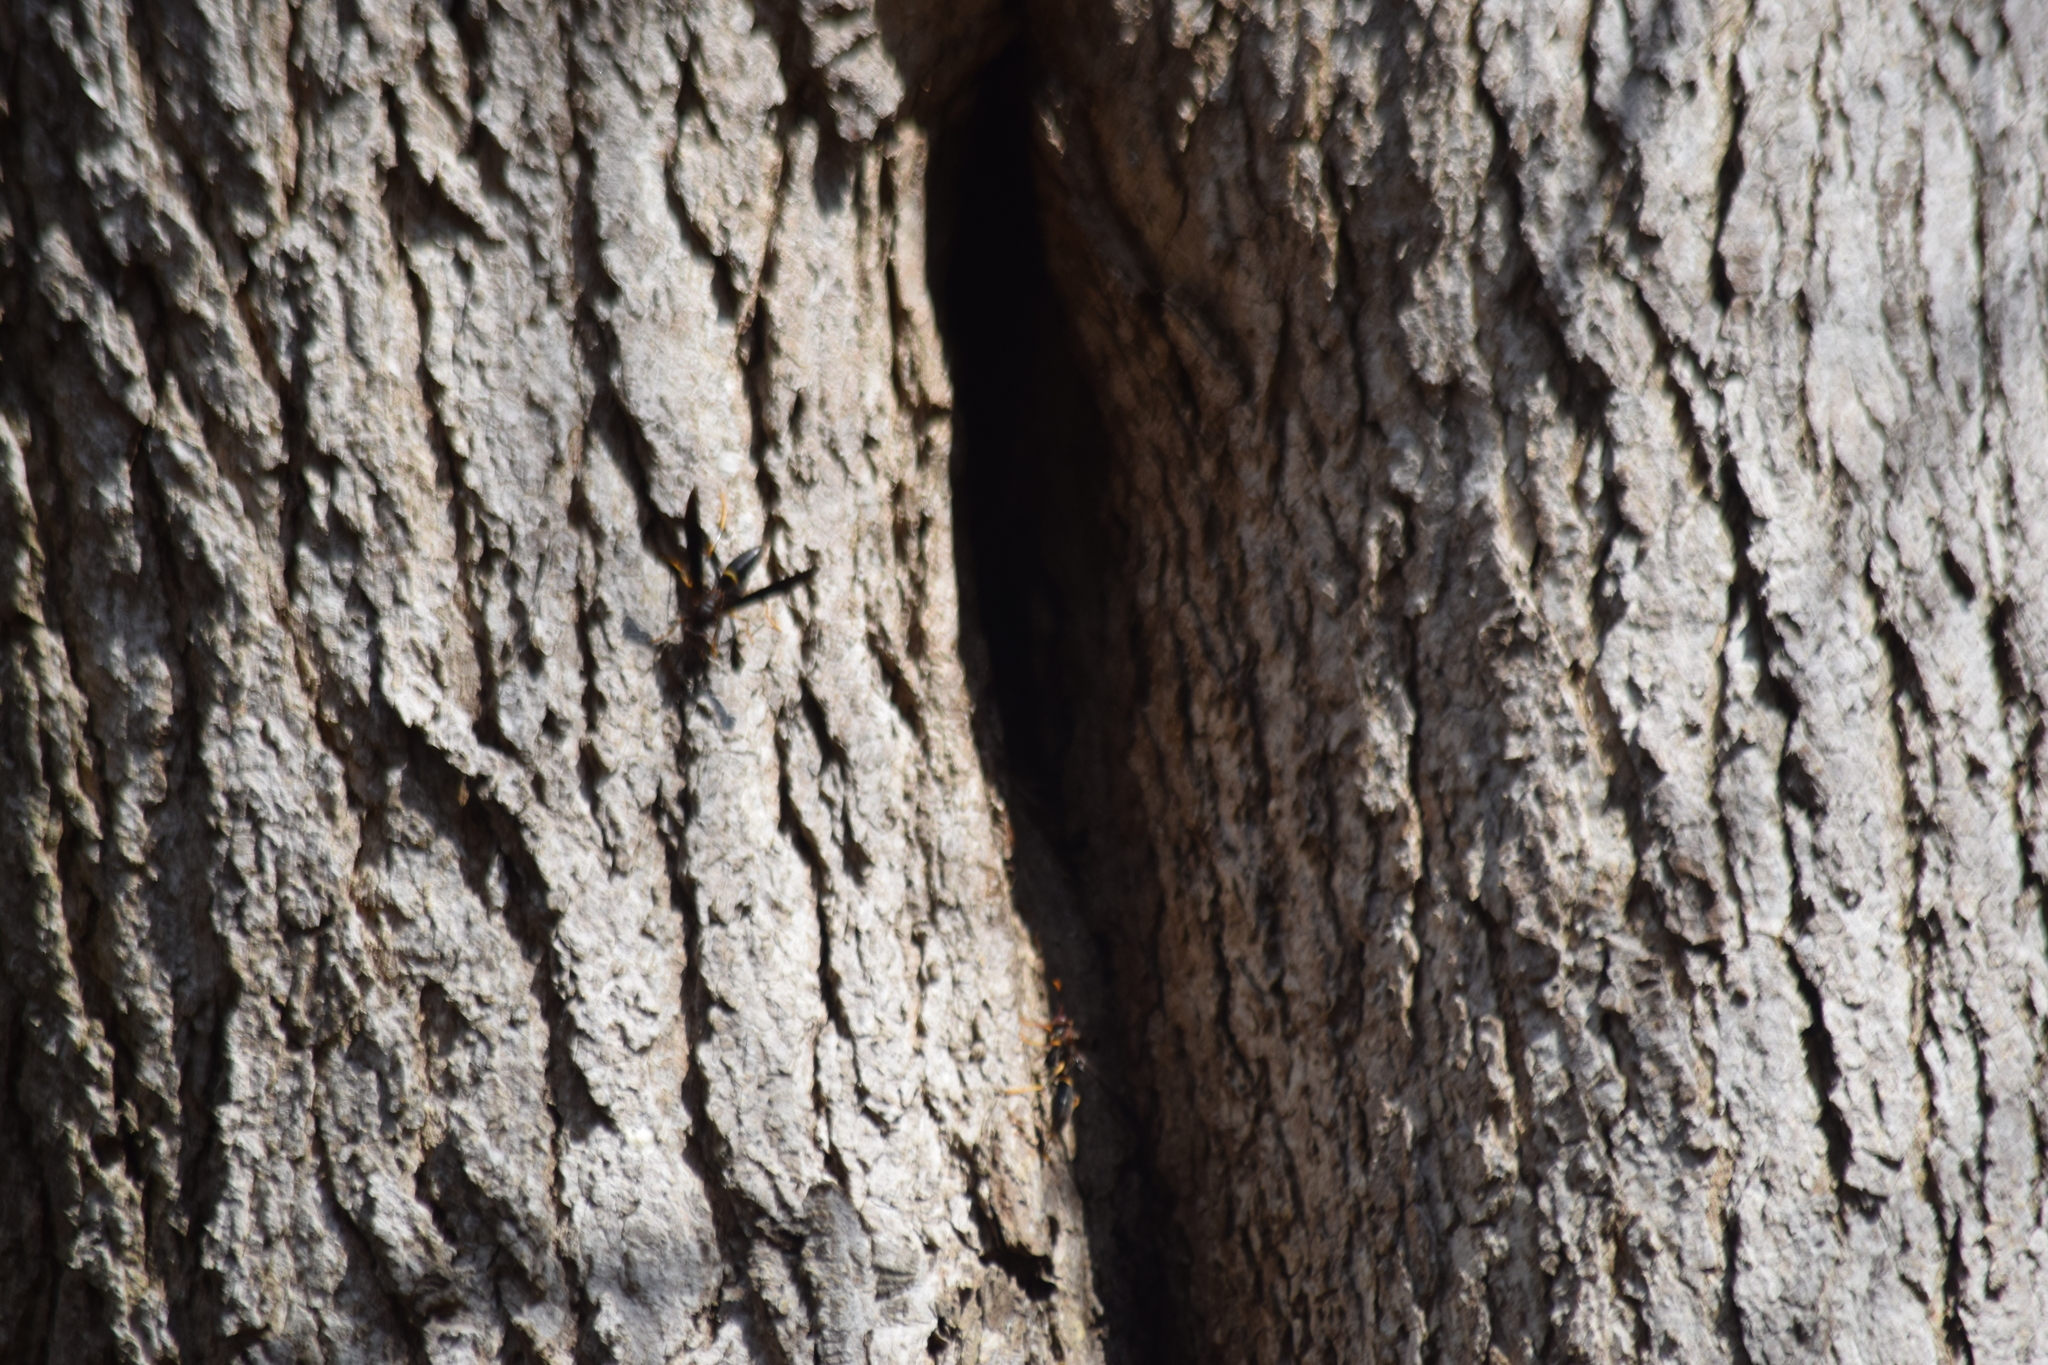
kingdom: Animalia
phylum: Arthropoda
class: Insecta
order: Hymenoptera
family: Eumenidae
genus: Polistes
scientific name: Polistes annularis
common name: Ringed paper wasp
